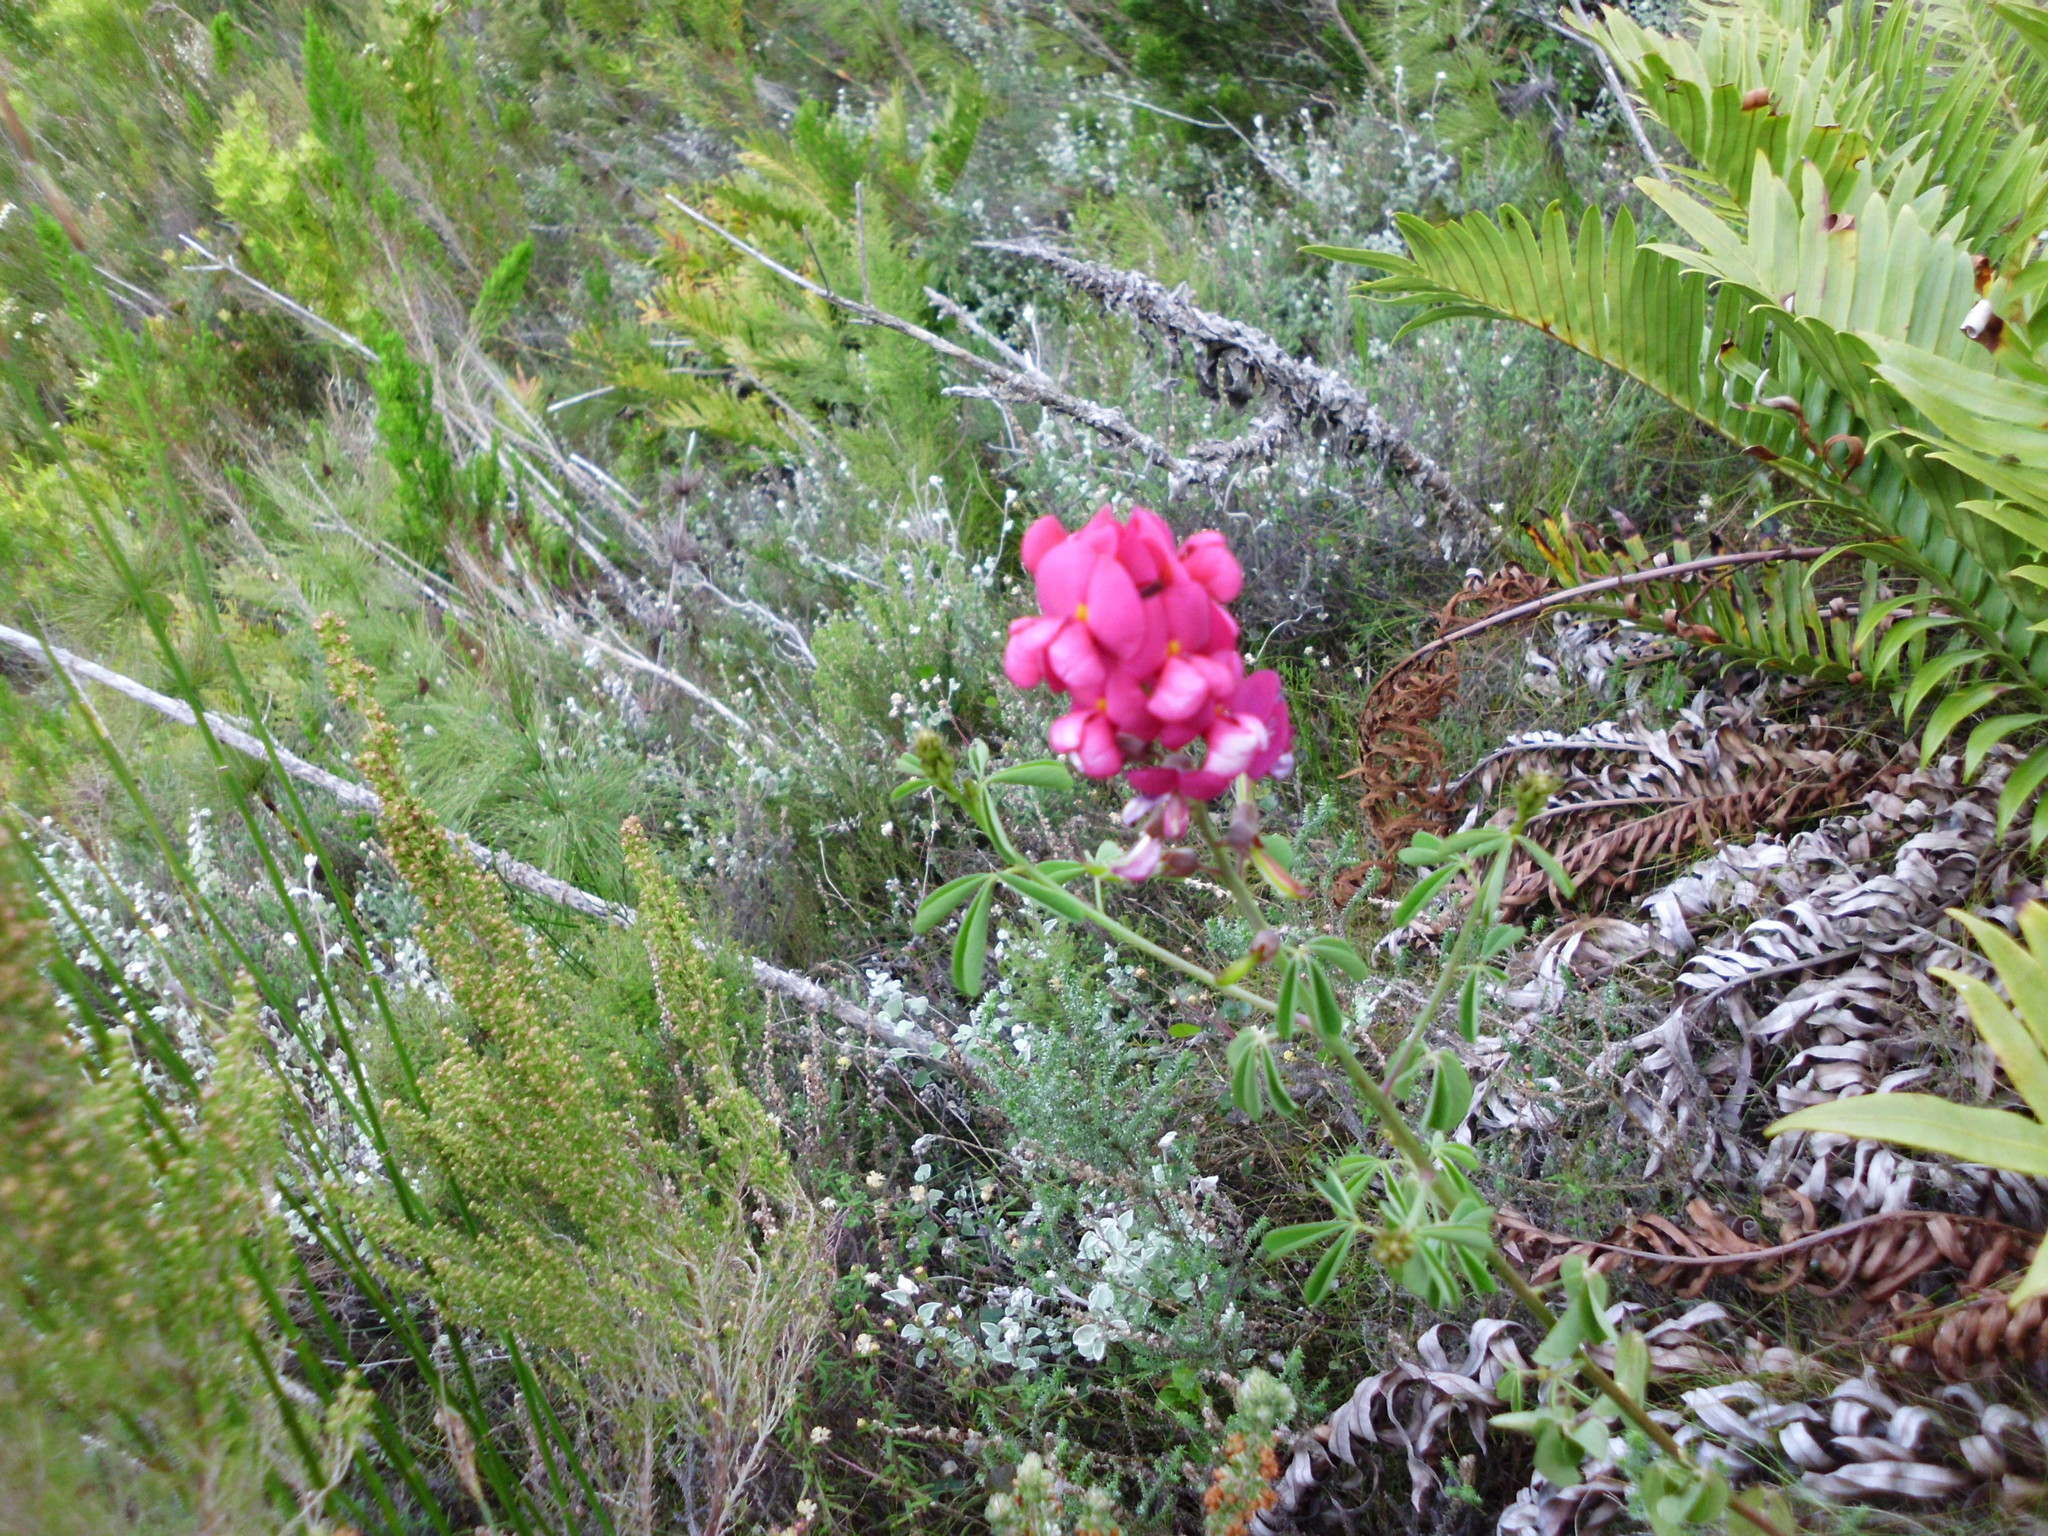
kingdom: Plantae
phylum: Tracheophyta
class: Magnoliopsida
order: Fabales
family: Fabaceae
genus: Hypocalyptus
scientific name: Hypocalyptus coluteoides
